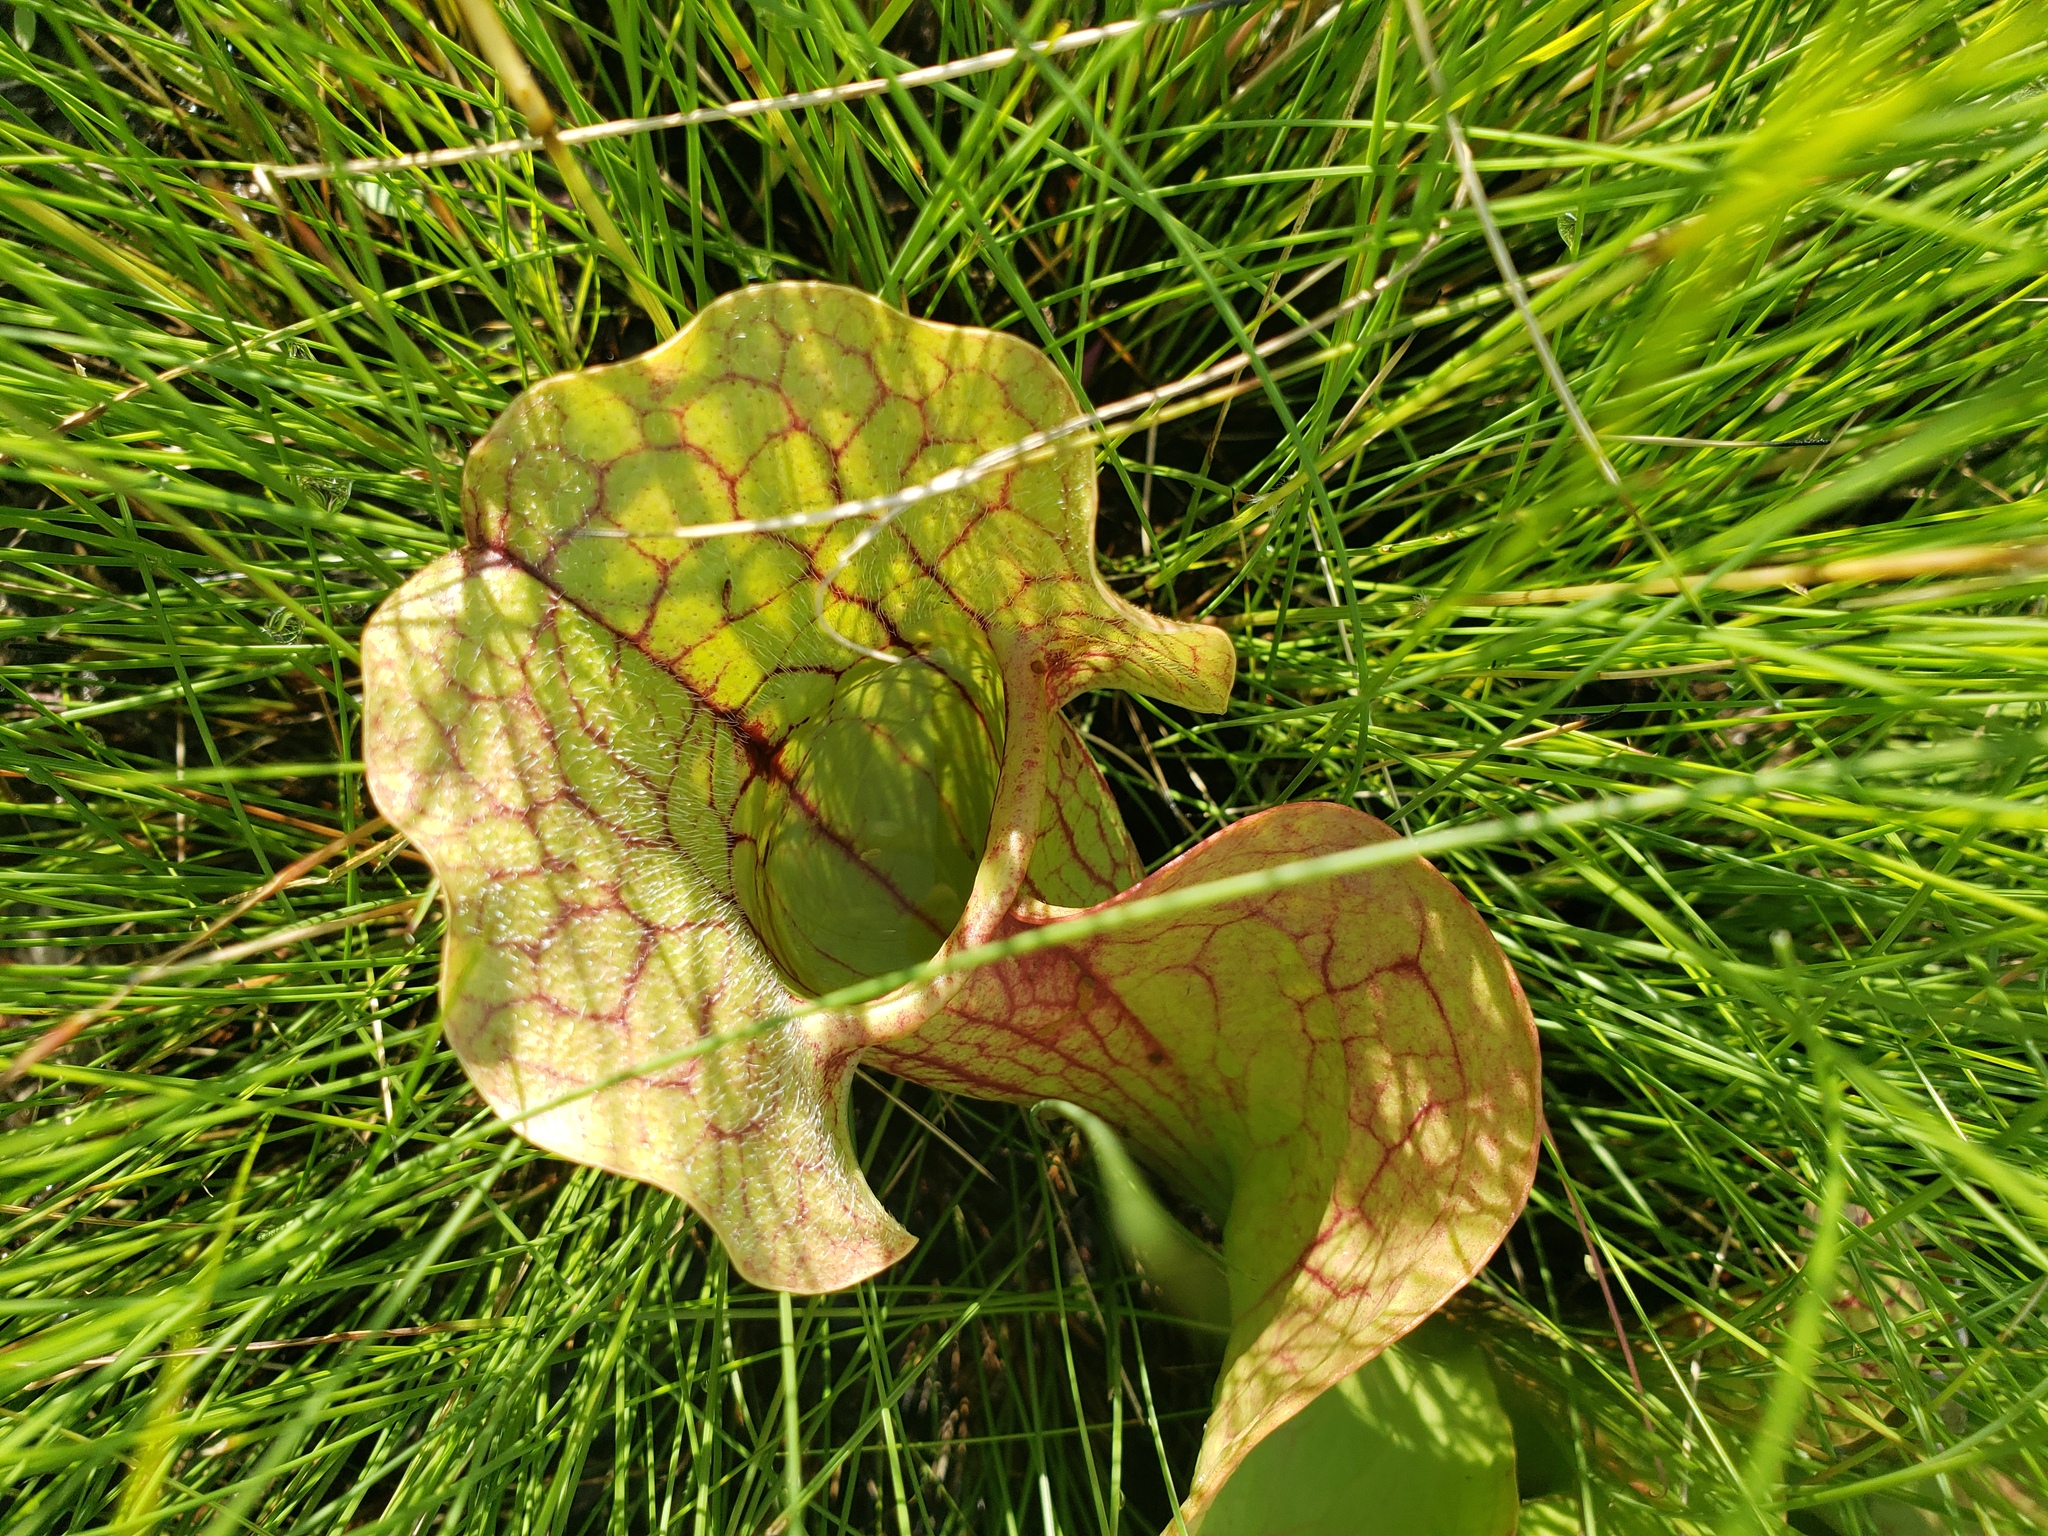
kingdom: Plantae
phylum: Tracheophyta
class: Magnoliopsida
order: Ericales
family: Sarraceniaceae
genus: Sarracenia
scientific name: Sarracenia rosea
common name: Pink pitcherplant
